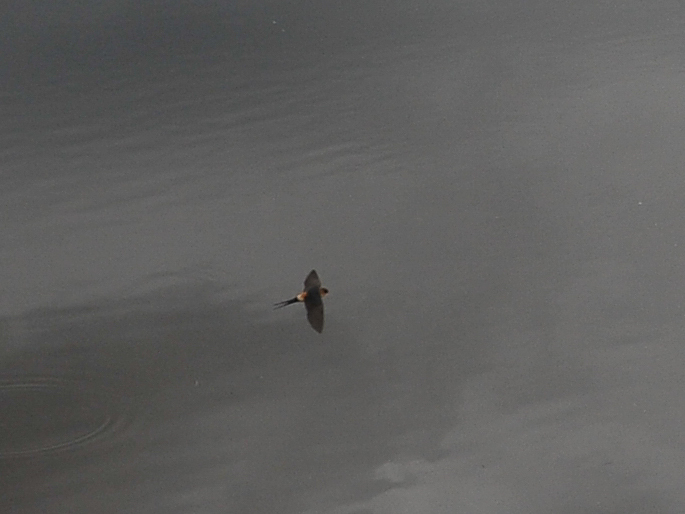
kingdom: Animalia
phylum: Chordata
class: Aves
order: Passeriformes
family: Hirundinidae
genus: Cecropis
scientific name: Cecropis daurica
